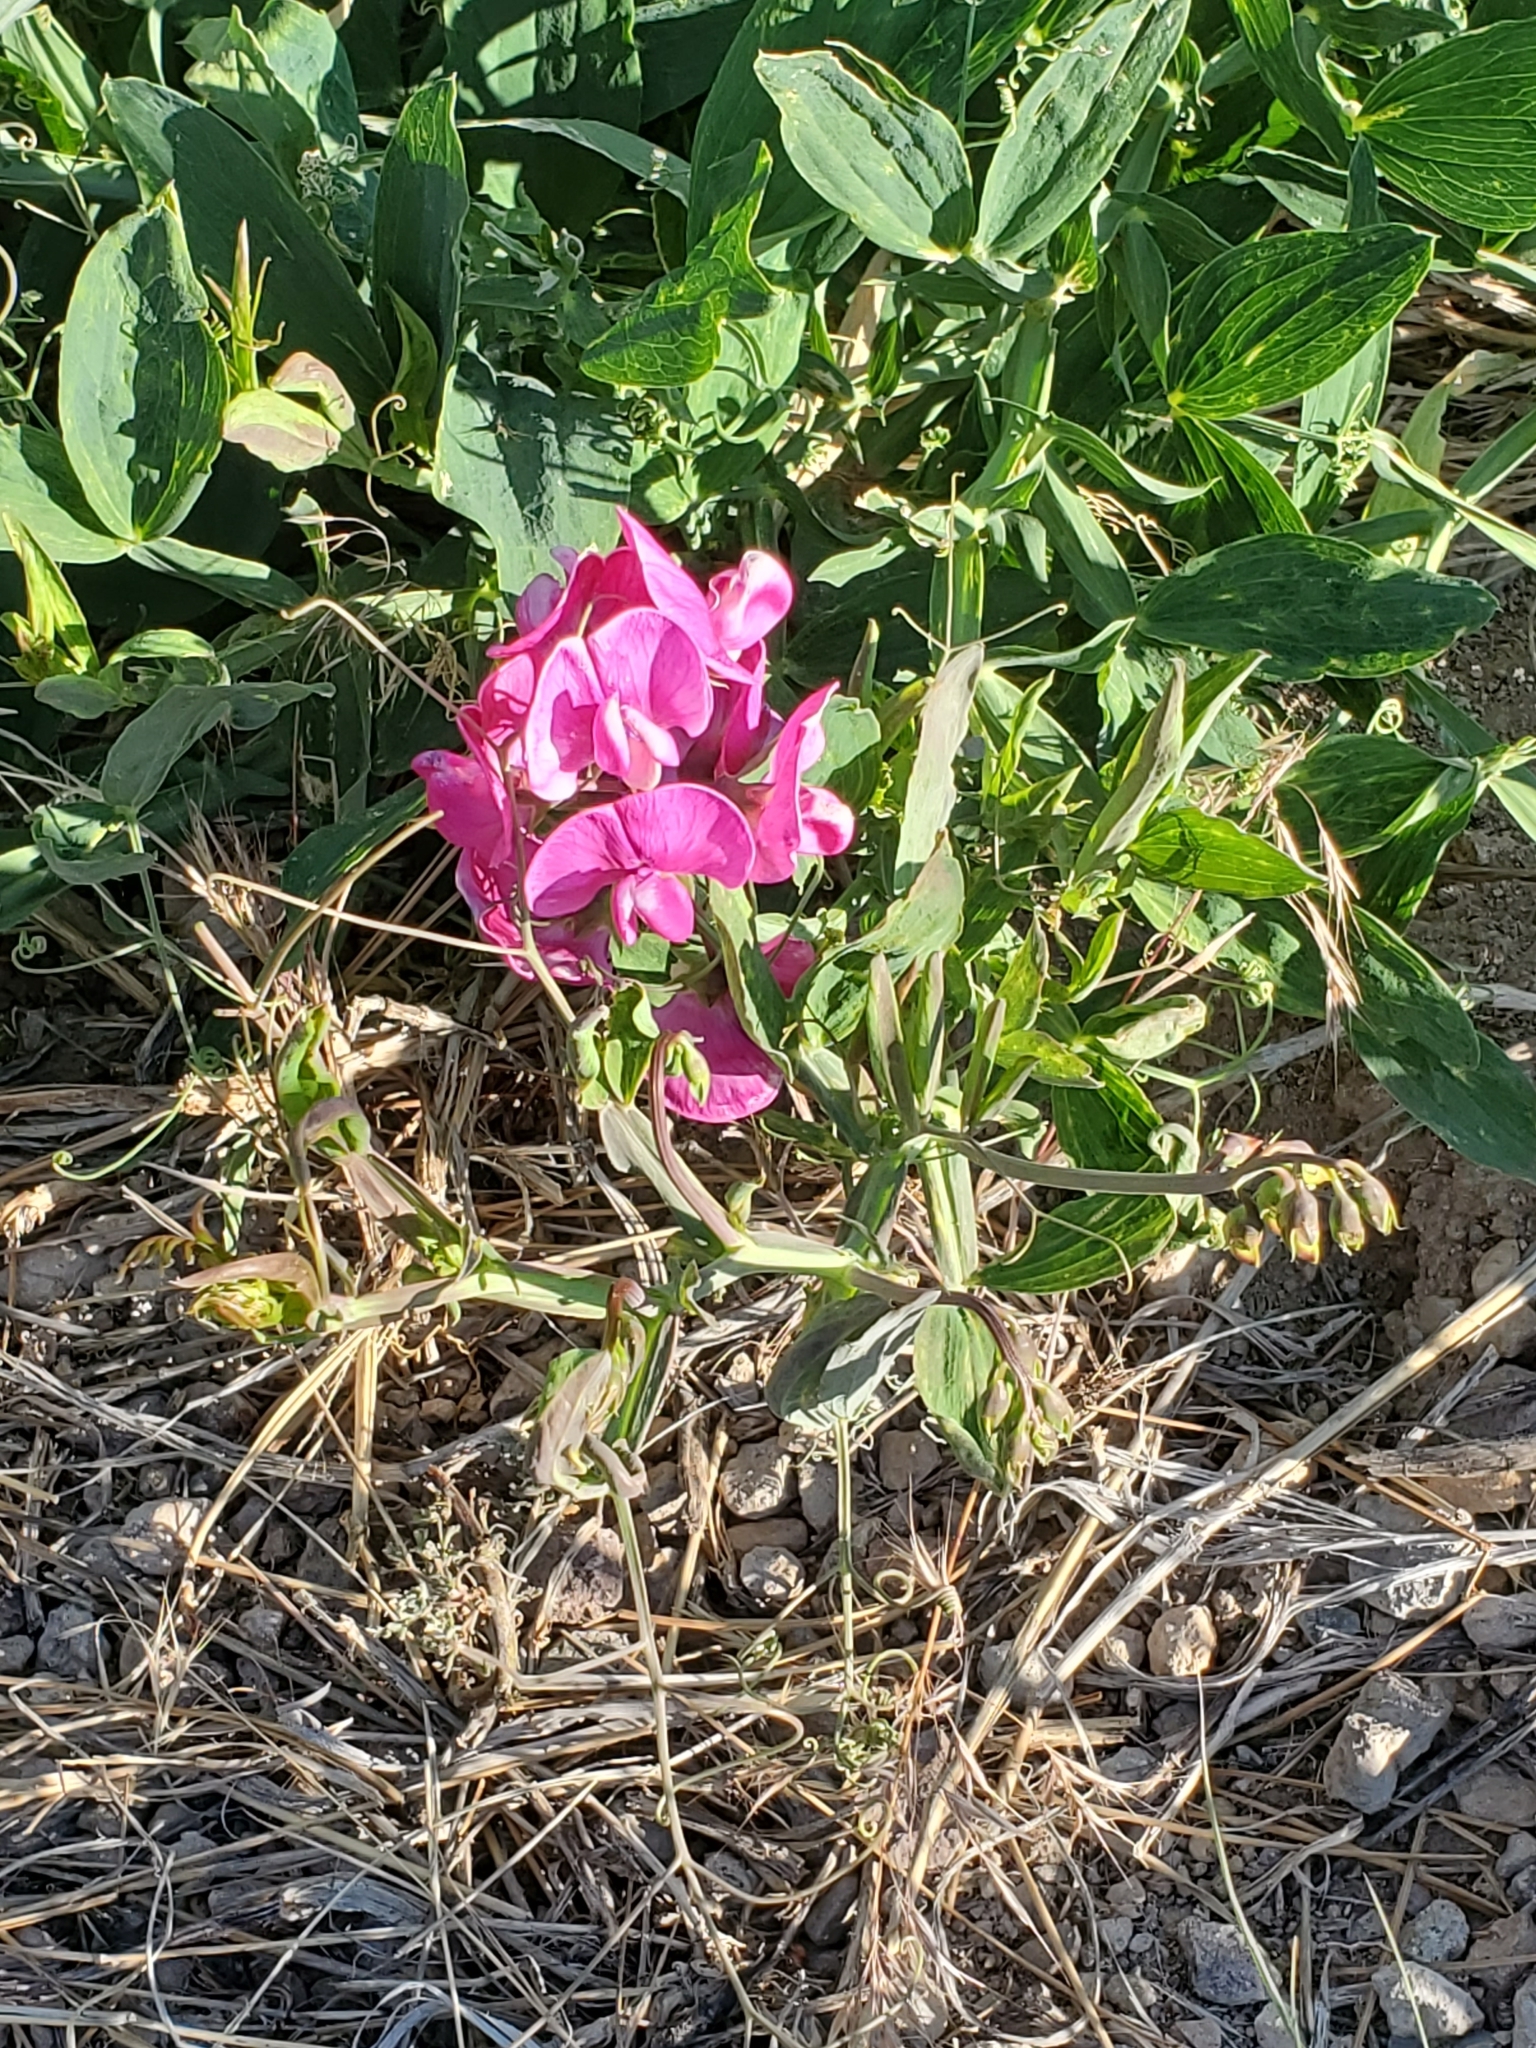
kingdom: Plantae
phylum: Tracheophyta
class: Magnoliopsida
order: Fabales
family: Fabaceae
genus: Lathyrus
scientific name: Lathyrus latifolius
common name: Perennial pea
